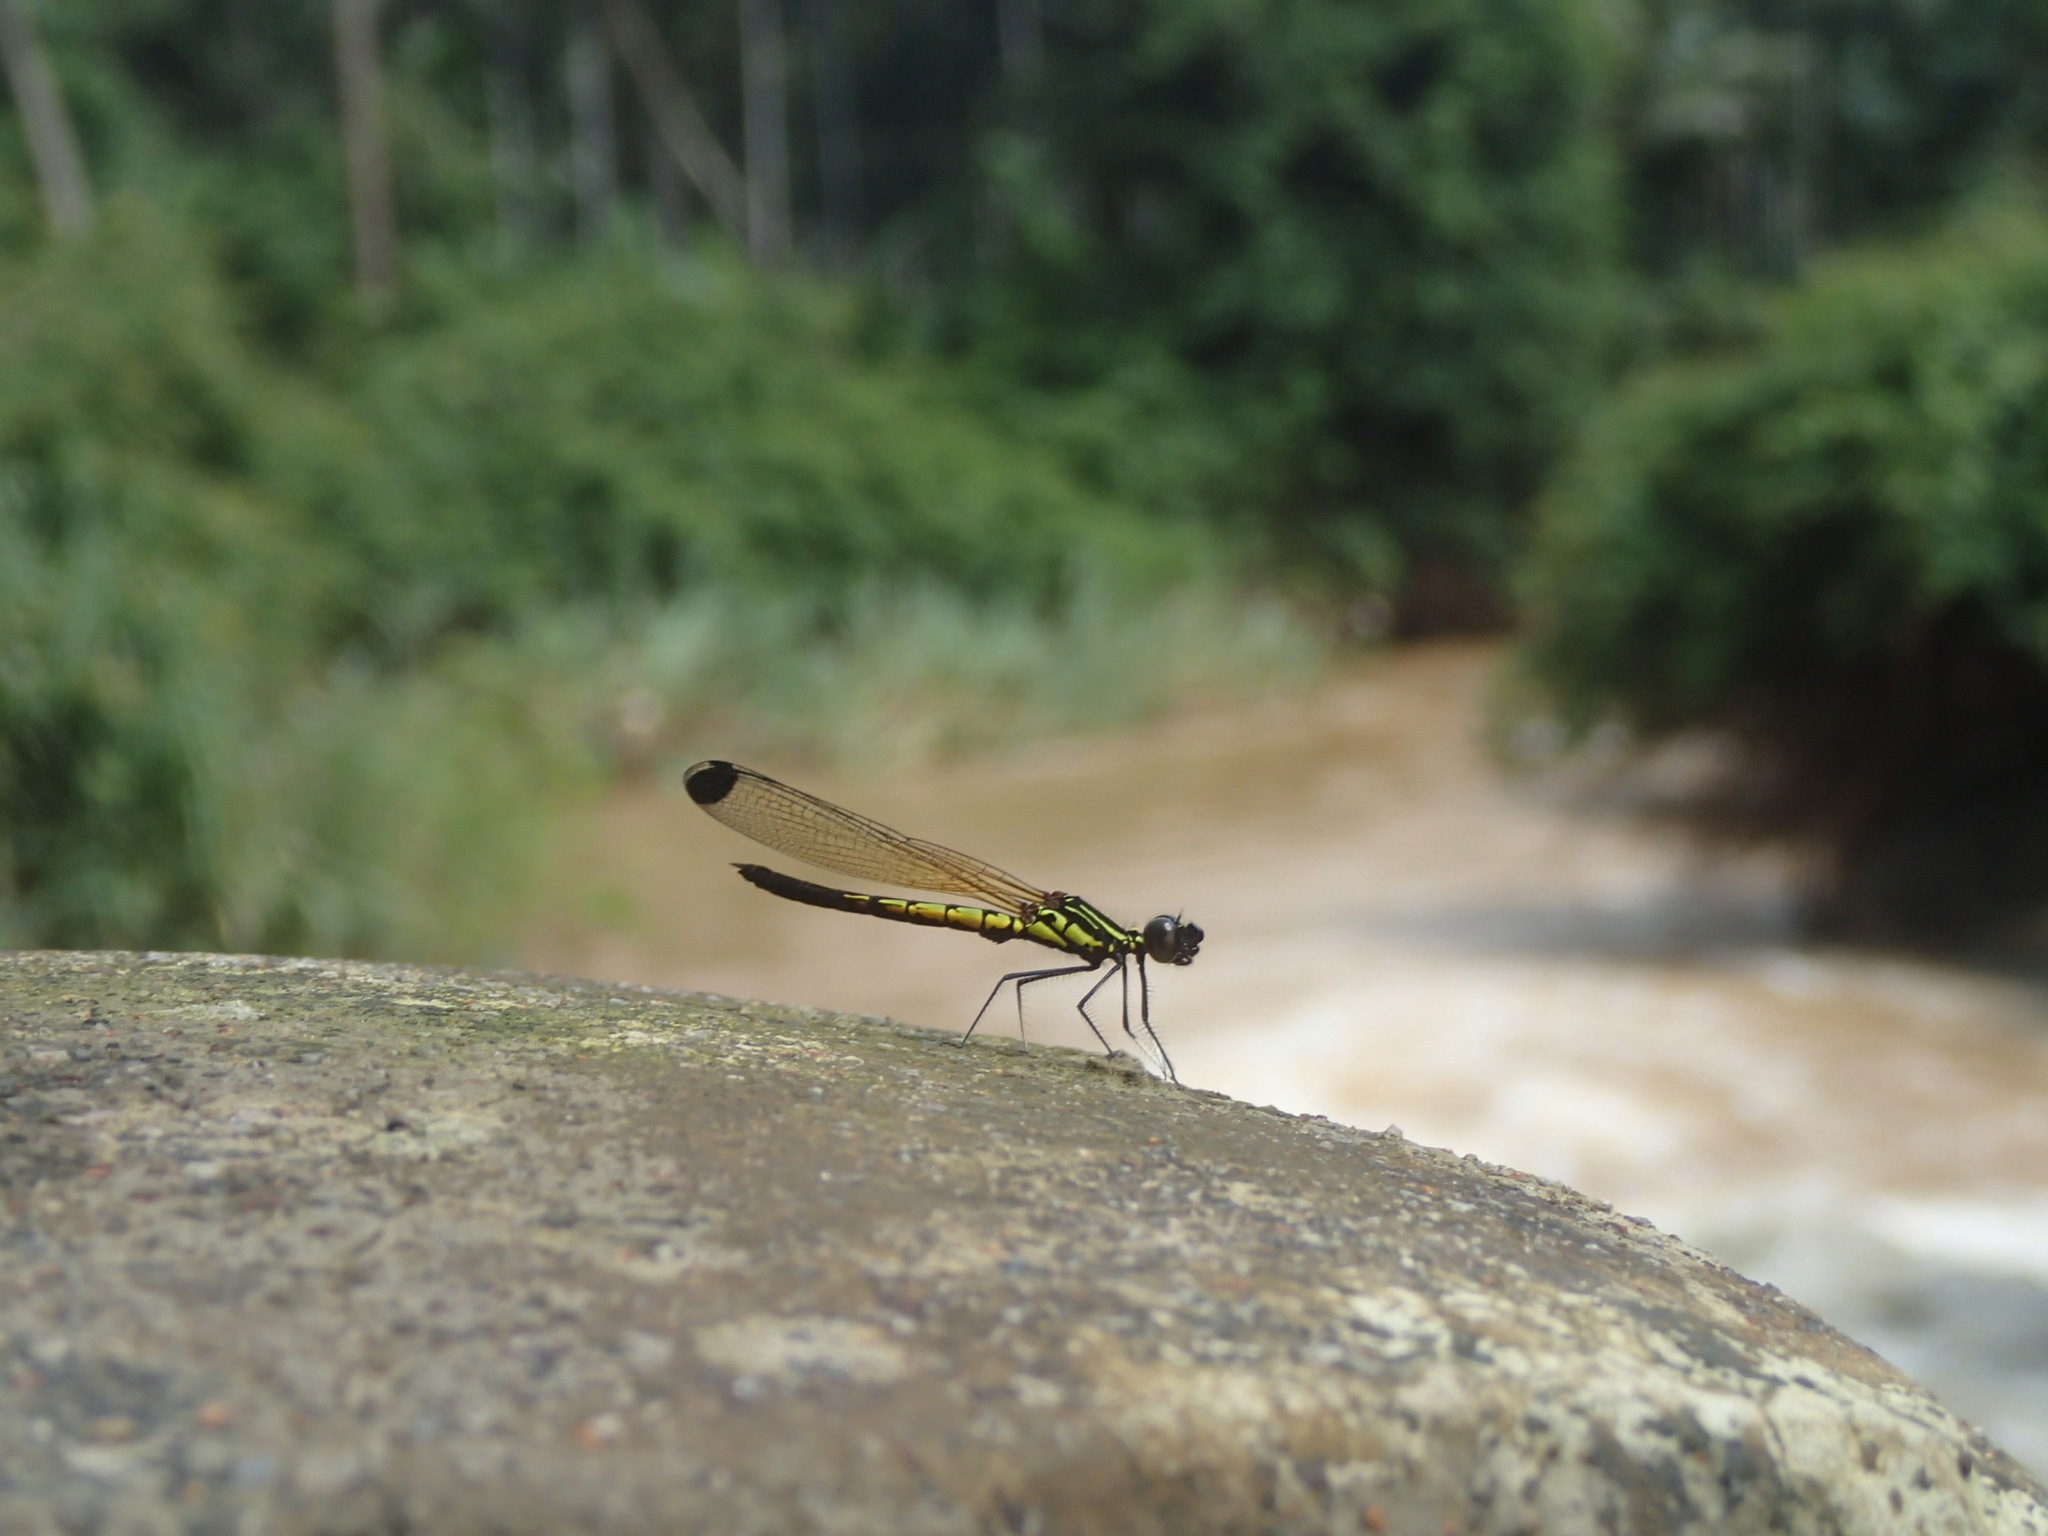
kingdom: Animalia
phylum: Arthropoda
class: Insecta
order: Odonata
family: Chlorocyphidae
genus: Libellago
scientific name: Libellago indica
